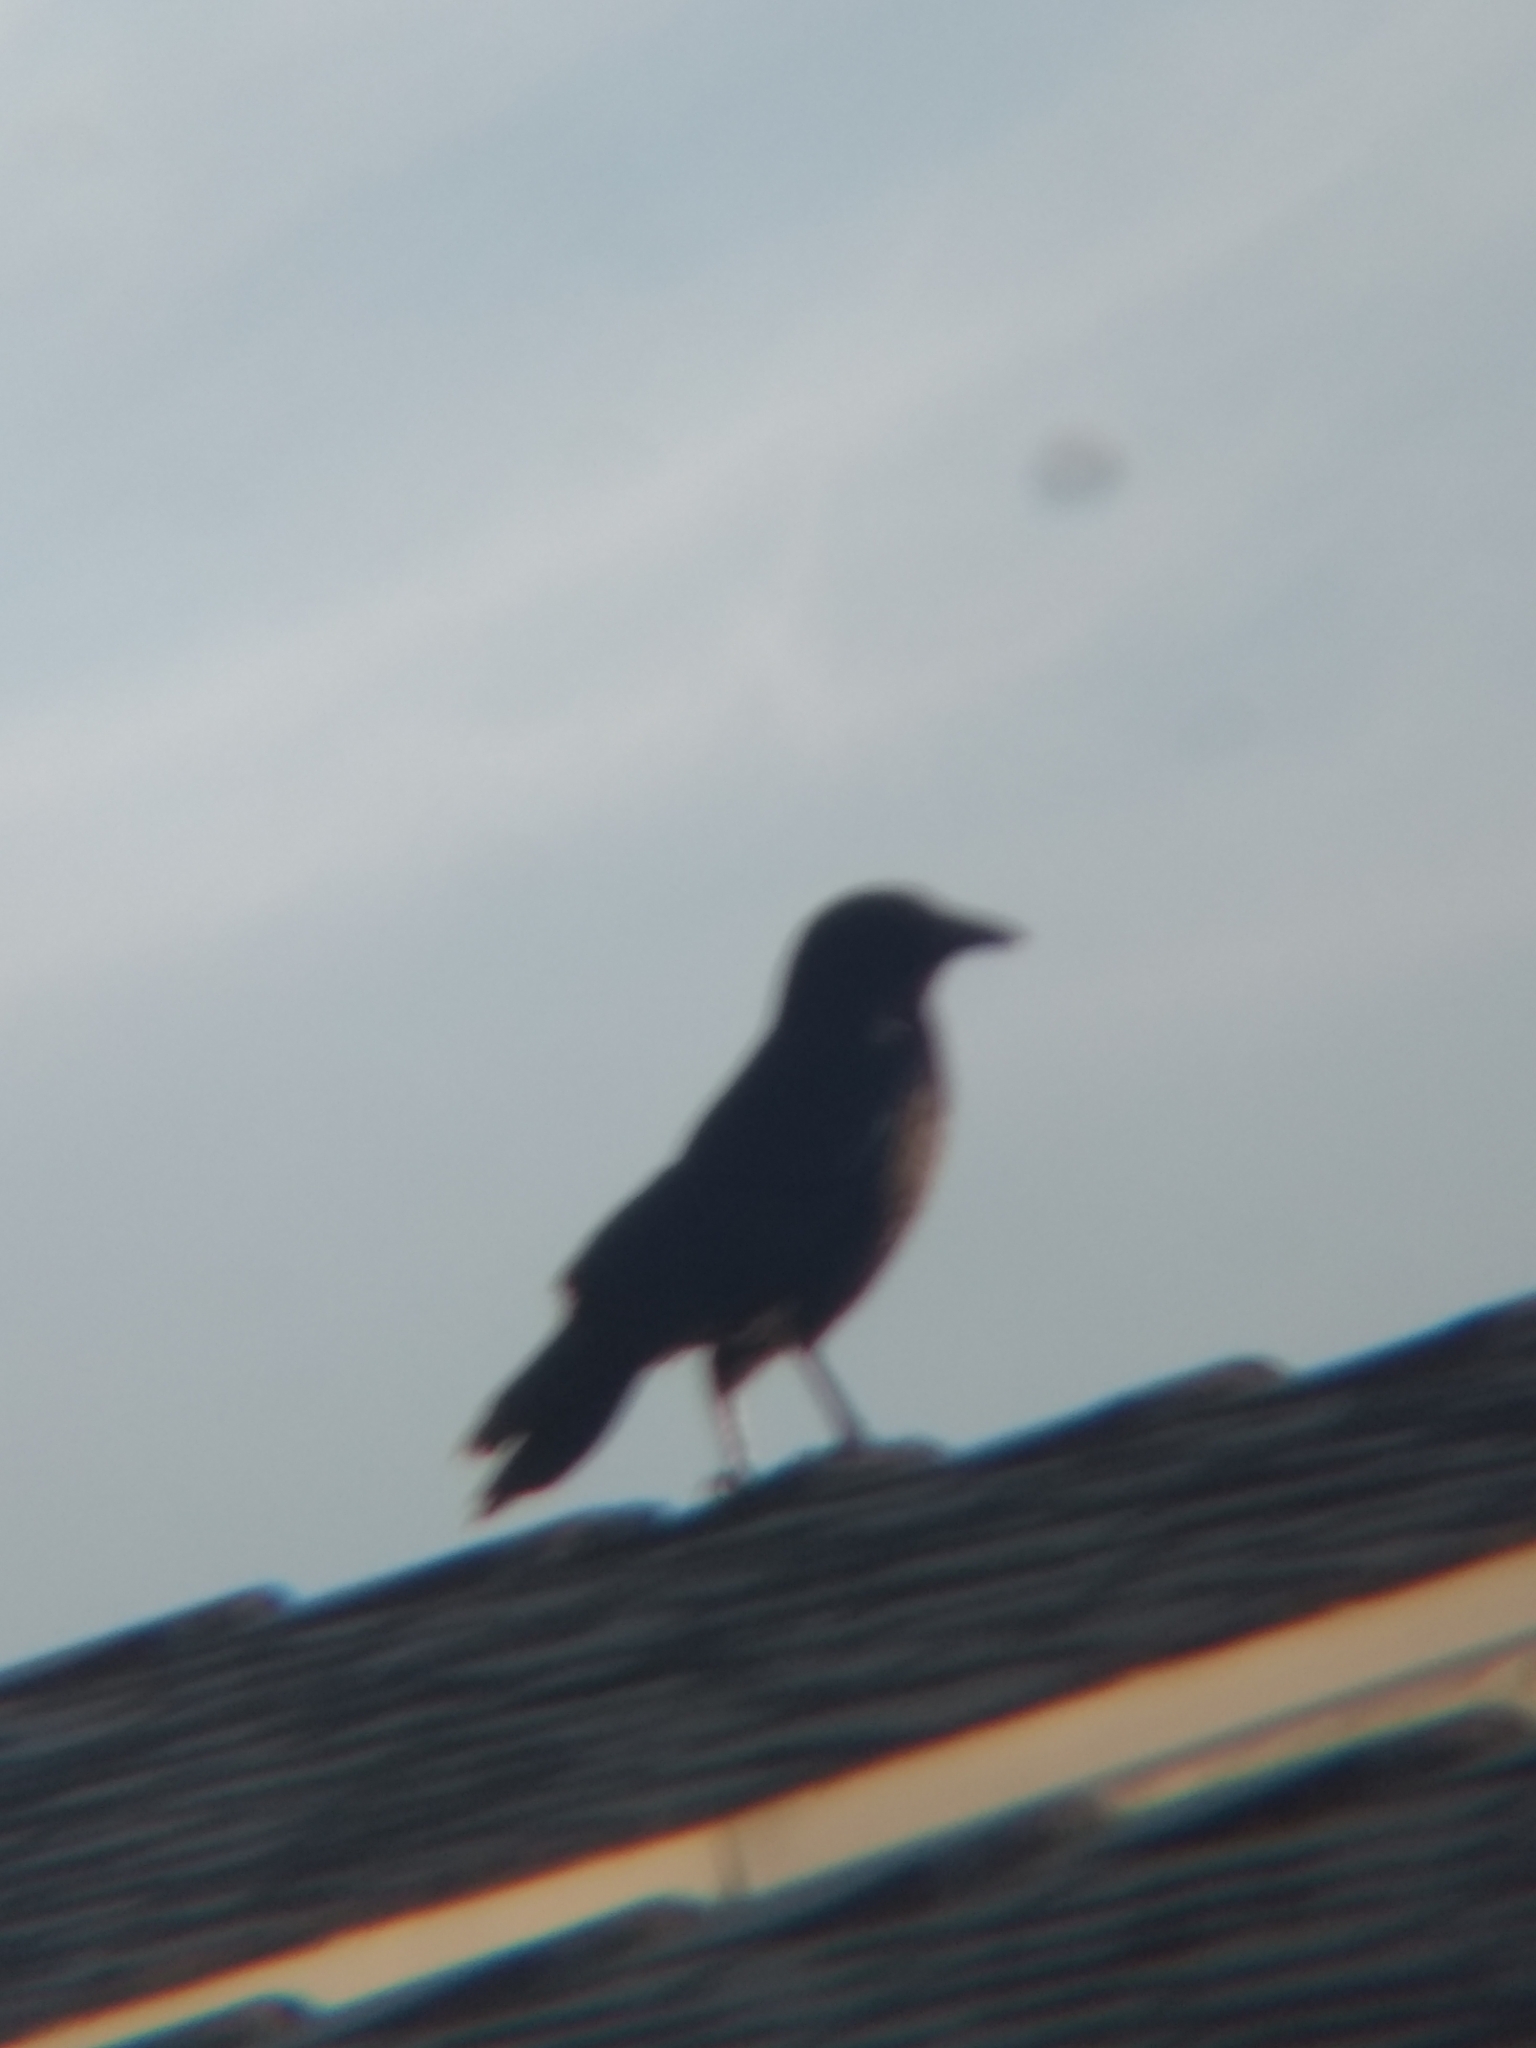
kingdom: Animalia
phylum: Chordata
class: Aves
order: Passeriformes
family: Corvidae
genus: Corvus
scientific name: Corvus brachyrhynchos
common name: American crow
